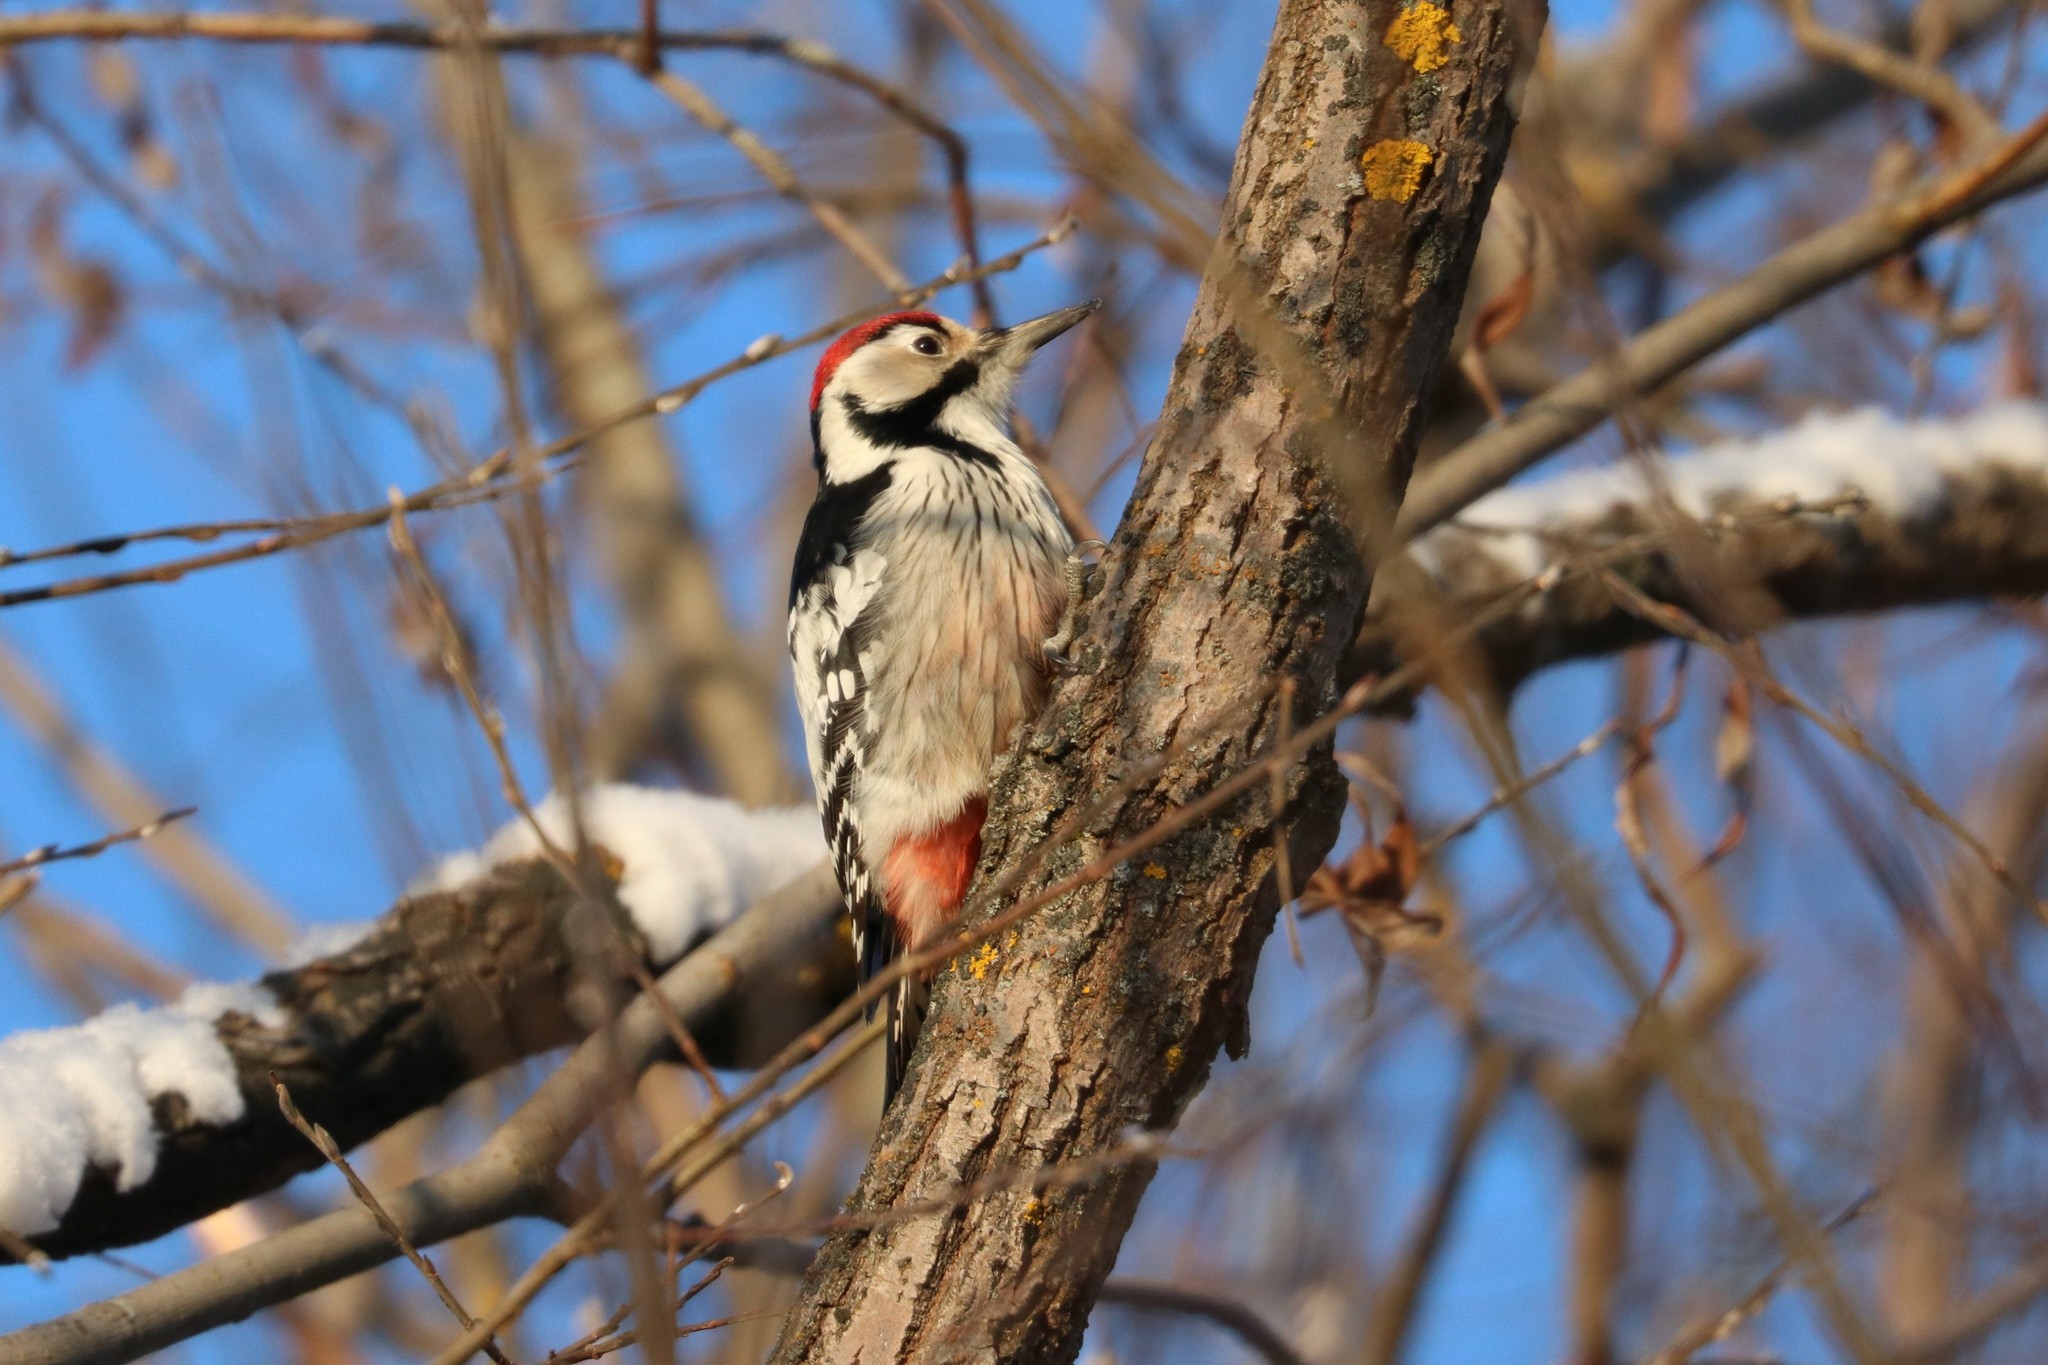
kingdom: Animalia
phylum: Chordata
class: Aves
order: Piciformes
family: Picidae
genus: Dendrocopos
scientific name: Dendrocopos leucotos
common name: White-backed woodpecker
